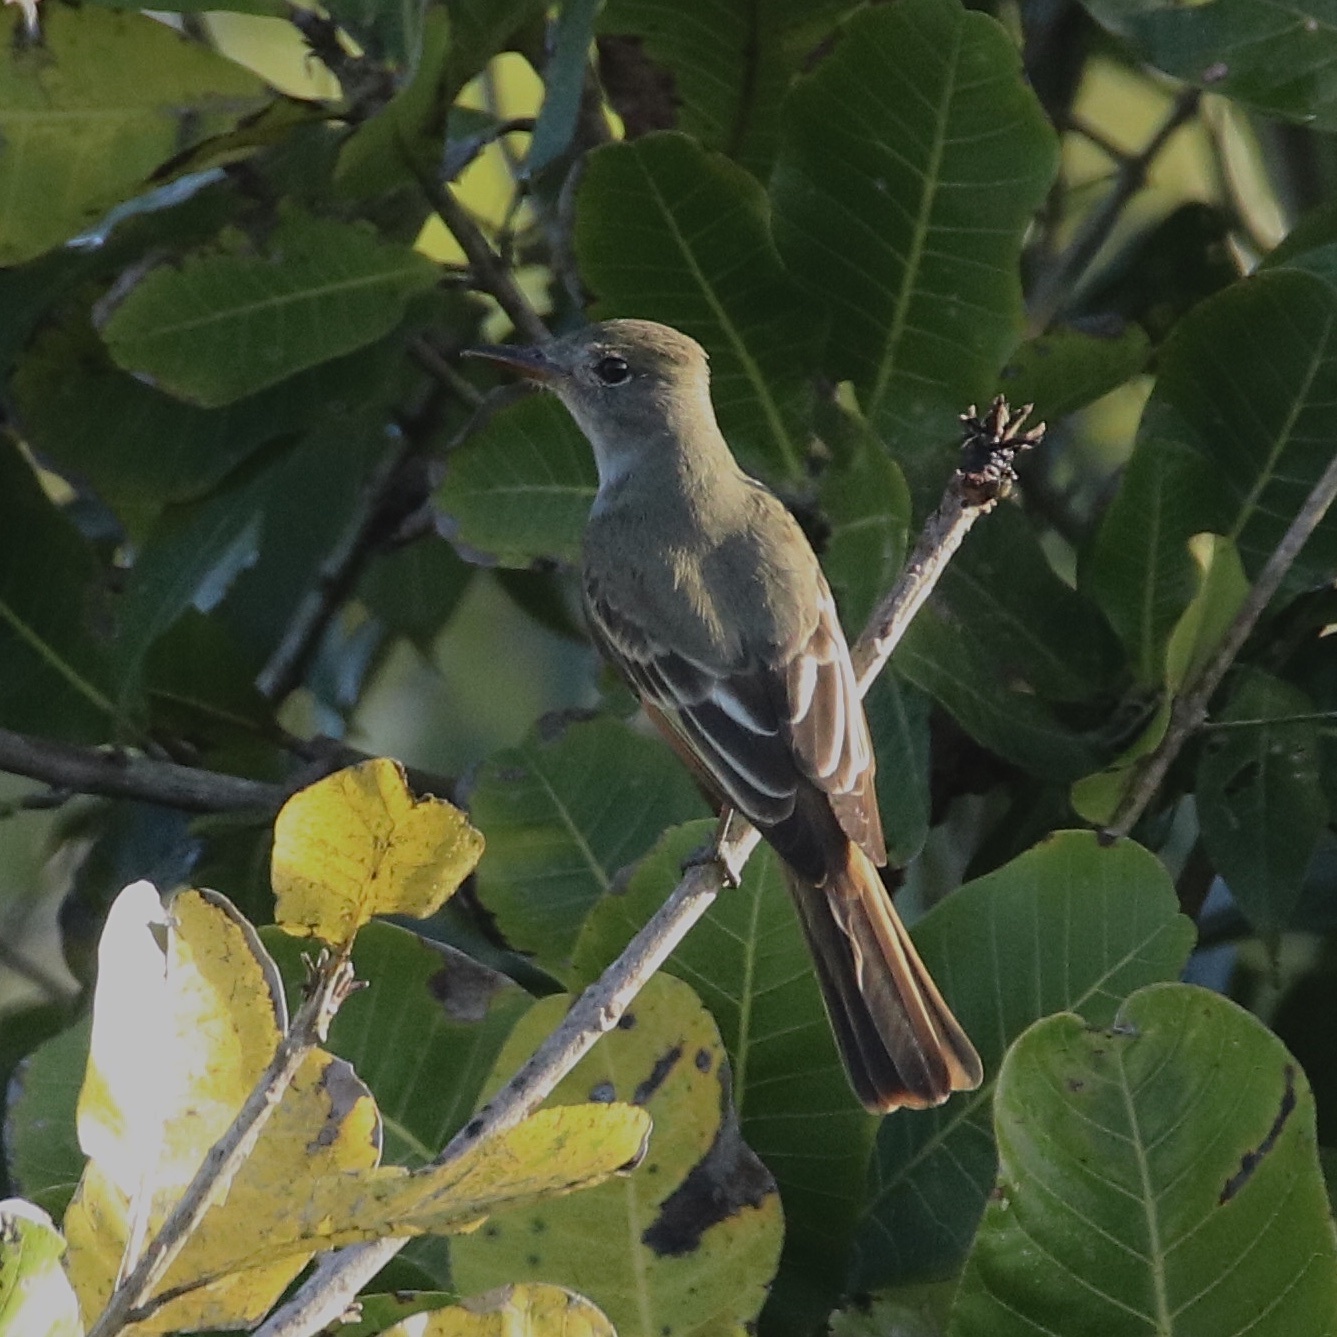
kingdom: Animalia
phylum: Chordata
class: Aves
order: Passeriformes
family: Tyrannidae
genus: Myiarchus
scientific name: Myiarchus crinitus
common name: Great crested flycatcher
